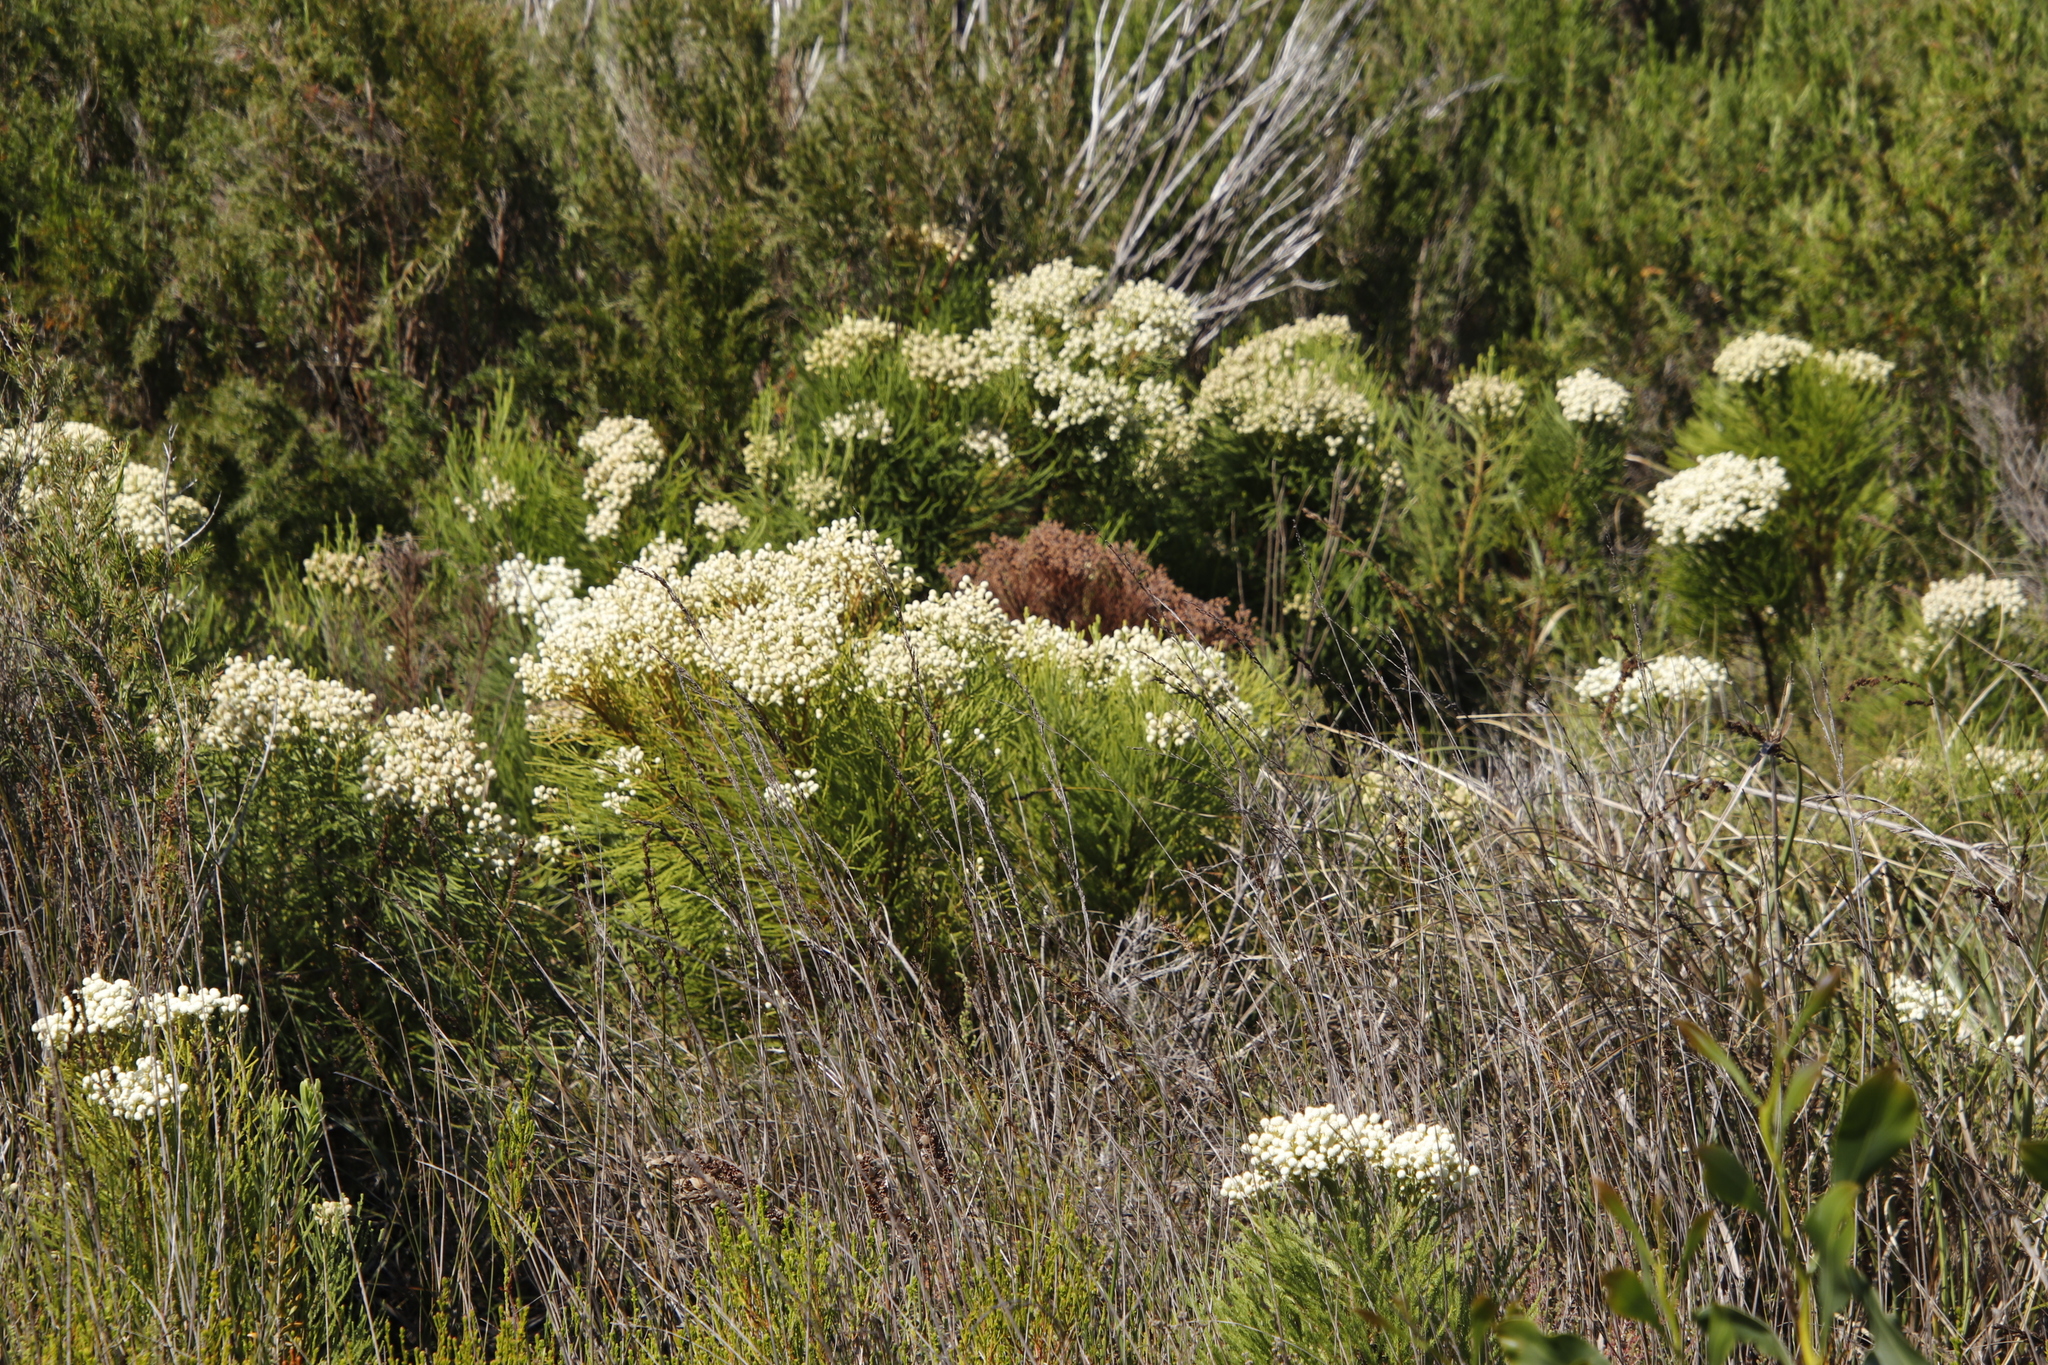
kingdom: Plantae
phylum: Tracheophyta
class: Magnoliopsida
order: Bruniales
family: Bruniaceae
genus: Berzelia
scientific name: Berzelia lanuginosa
